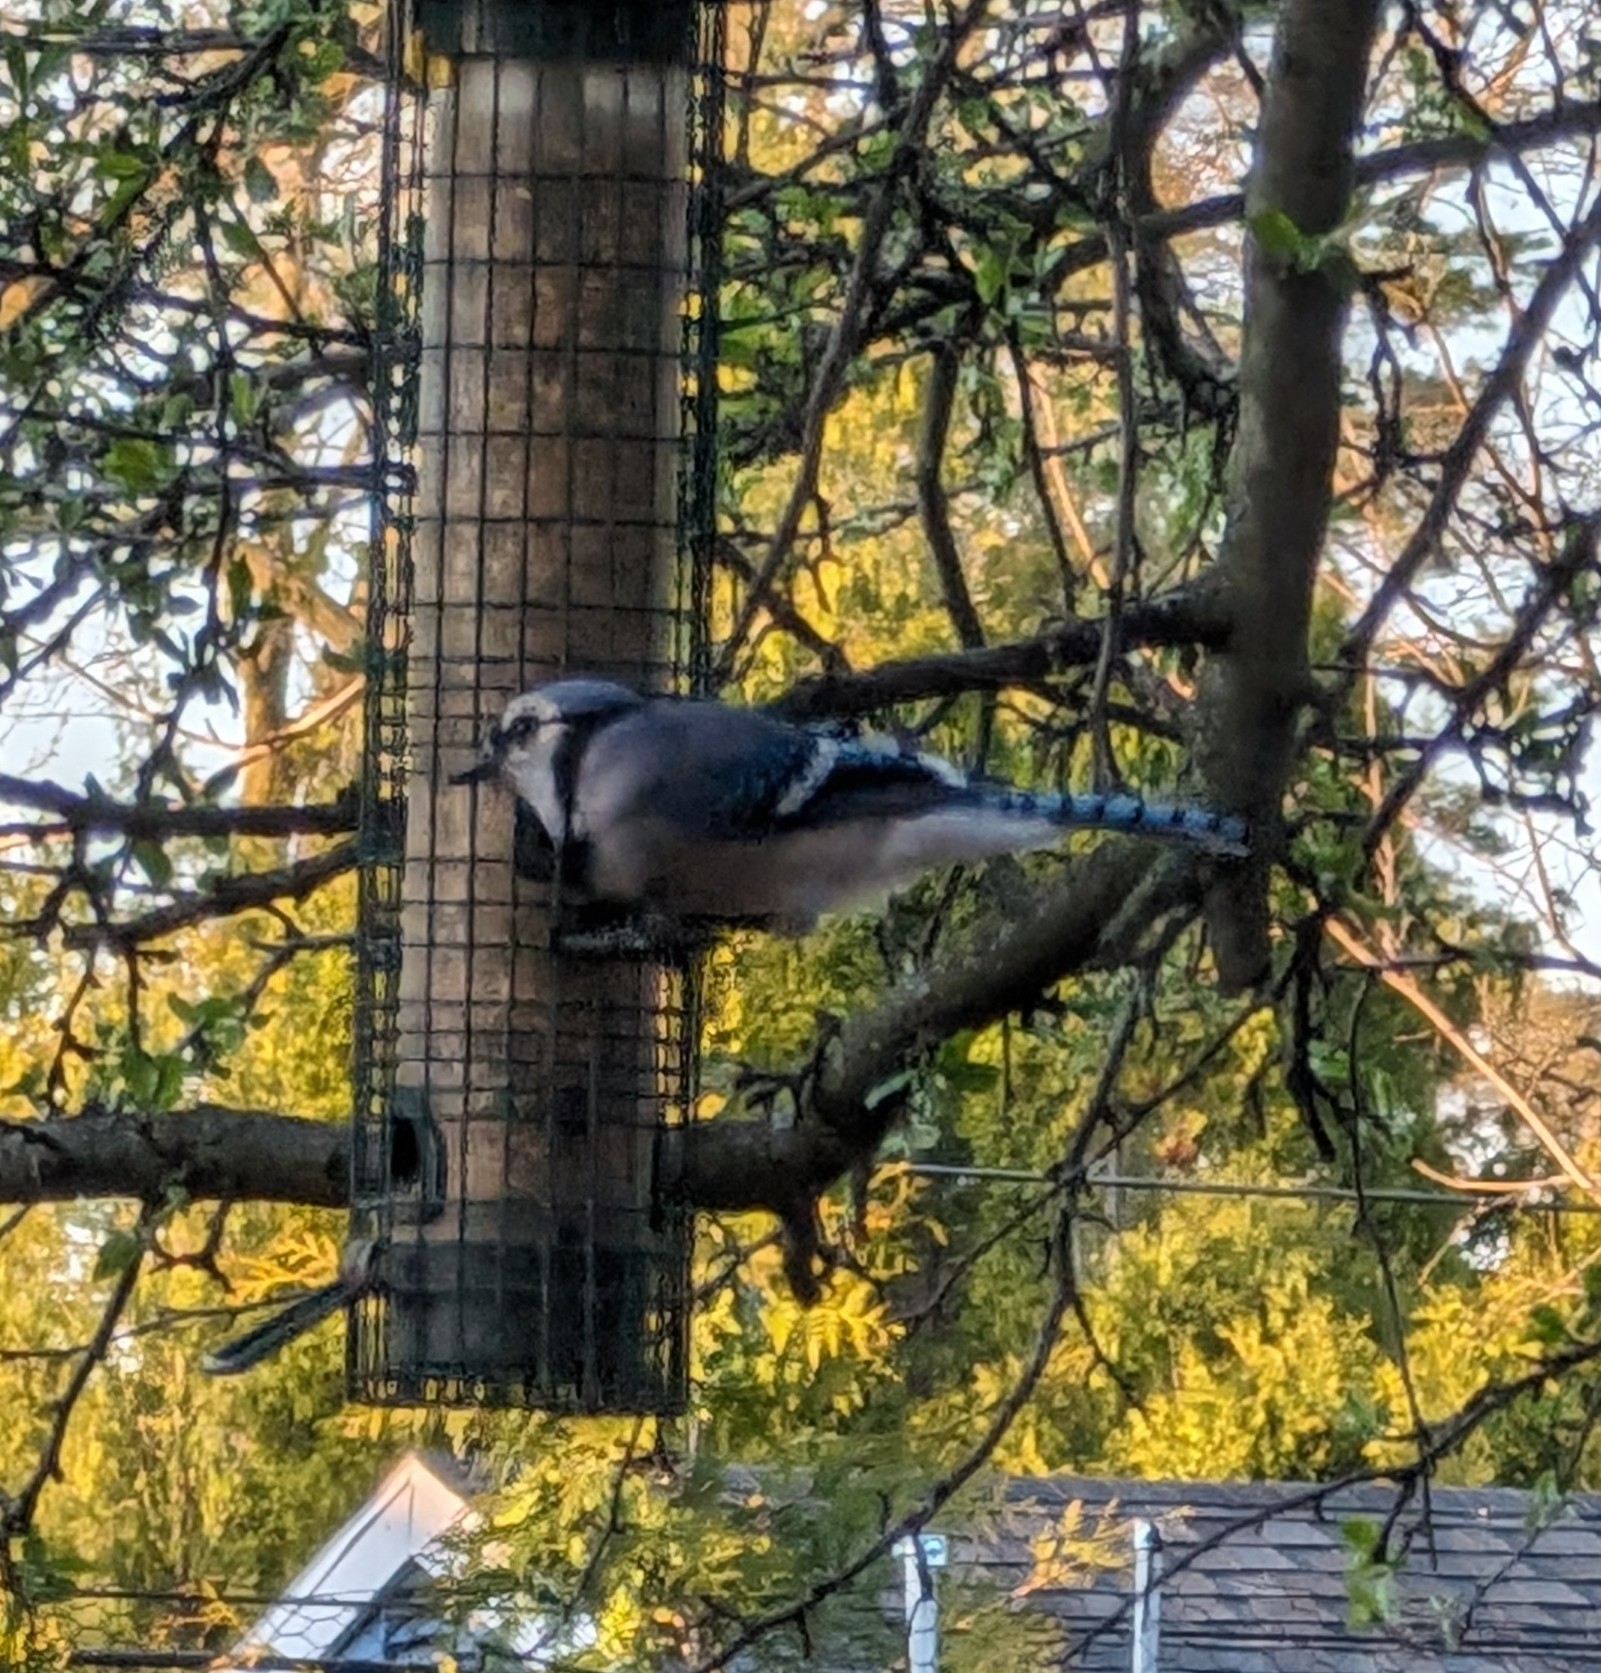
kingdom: Animalia
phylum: Chordata
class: Aves
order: Passeriformes
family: Corvidae
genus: Cyanocitta
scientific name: Cyanocitta cristata
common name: Blue jay
